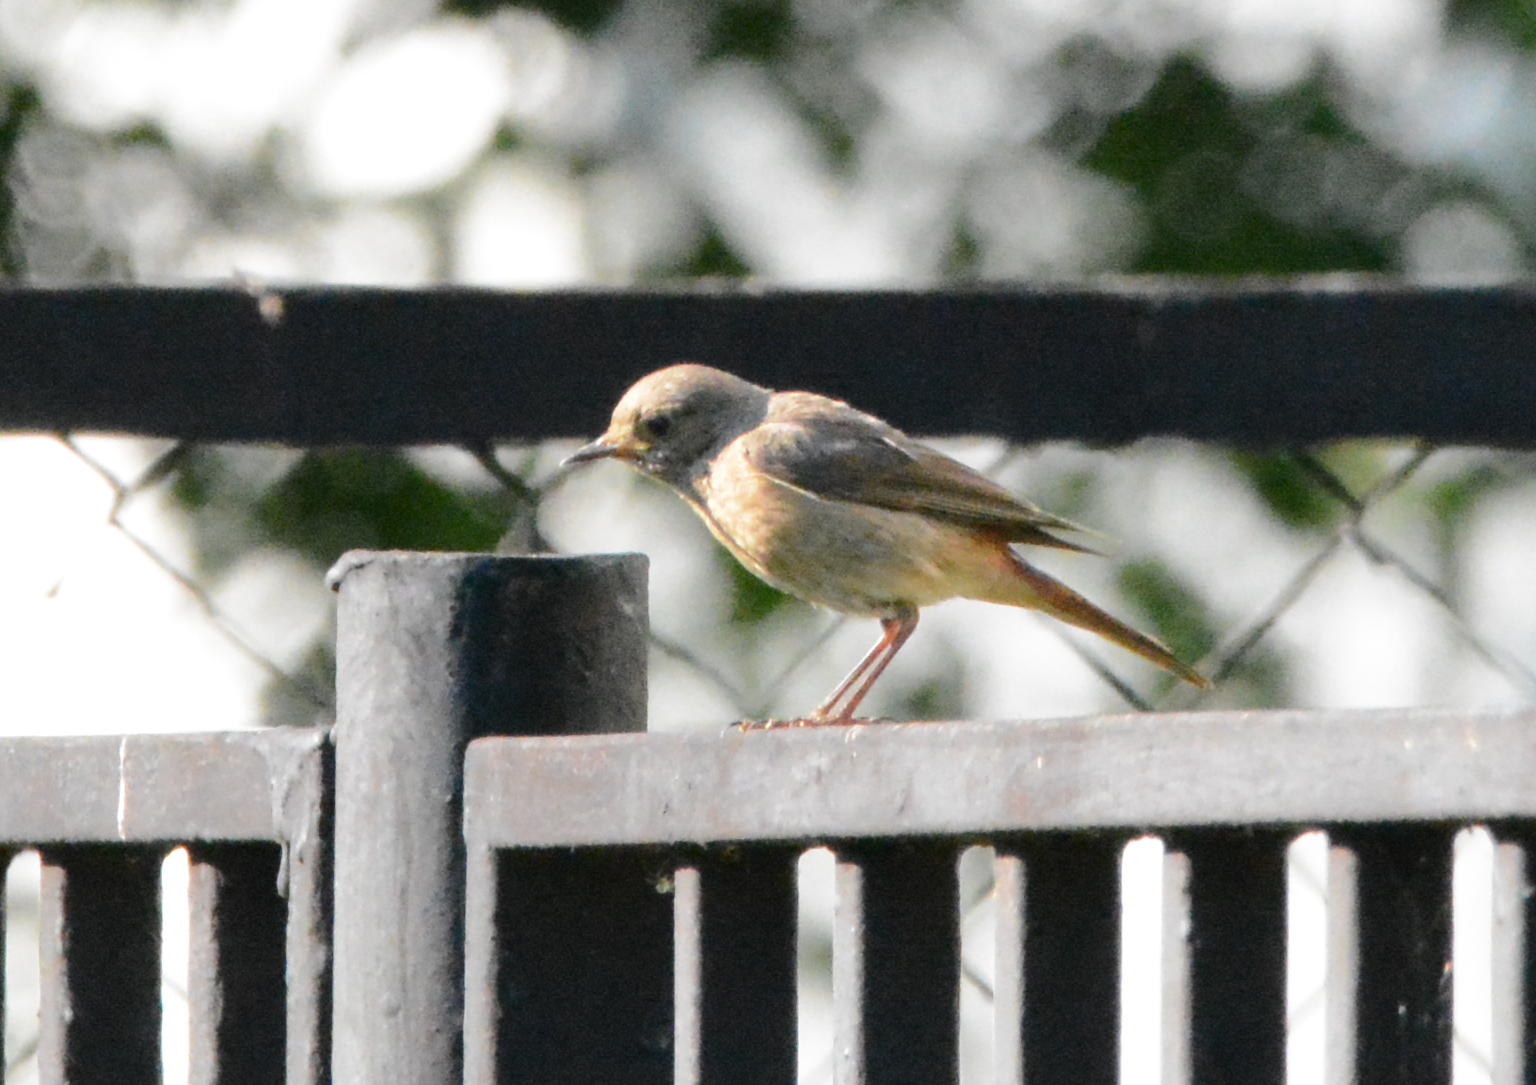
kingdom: Animalia
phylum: Chordata
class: Aves
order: Passeriformes
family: Muscicapidae
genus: Phoenicurus
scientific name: Phoenicurus phoenicurus
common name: Common redstart
